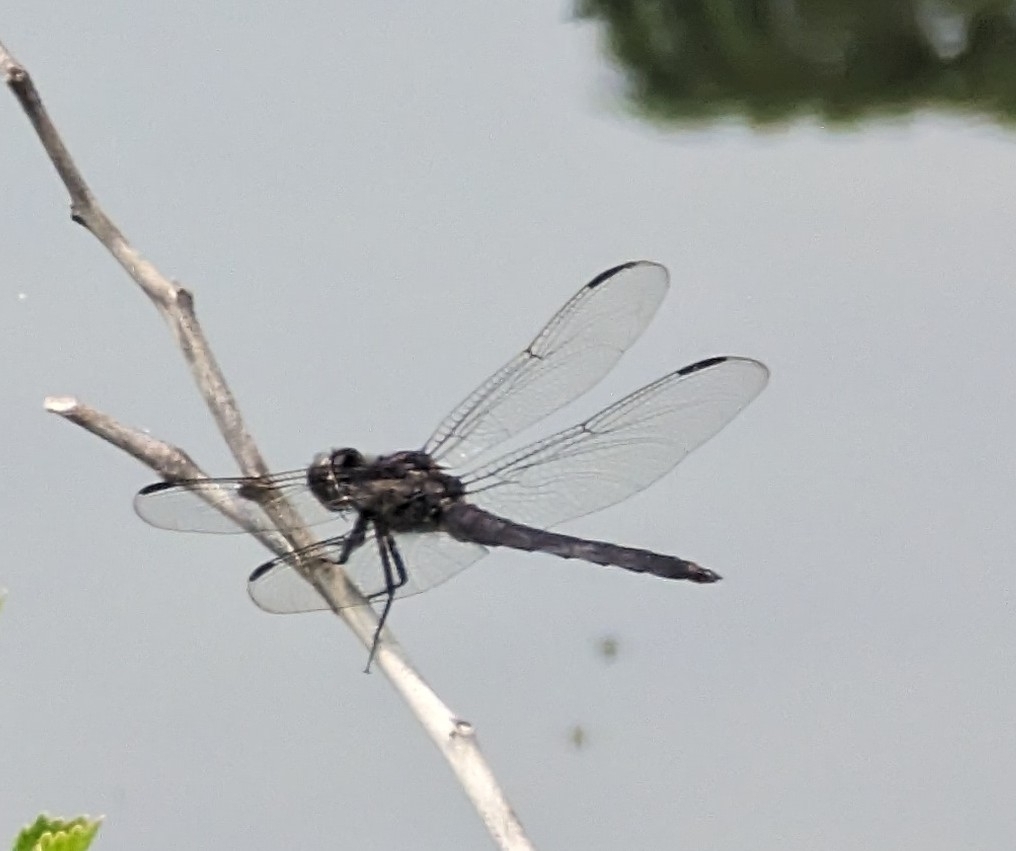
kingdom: Animalia
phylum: Arthropoda
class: Insecta
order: Odonata
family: Libellulidae
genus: Libellula
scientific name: Libellula incesta
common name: Slaty skimmer
